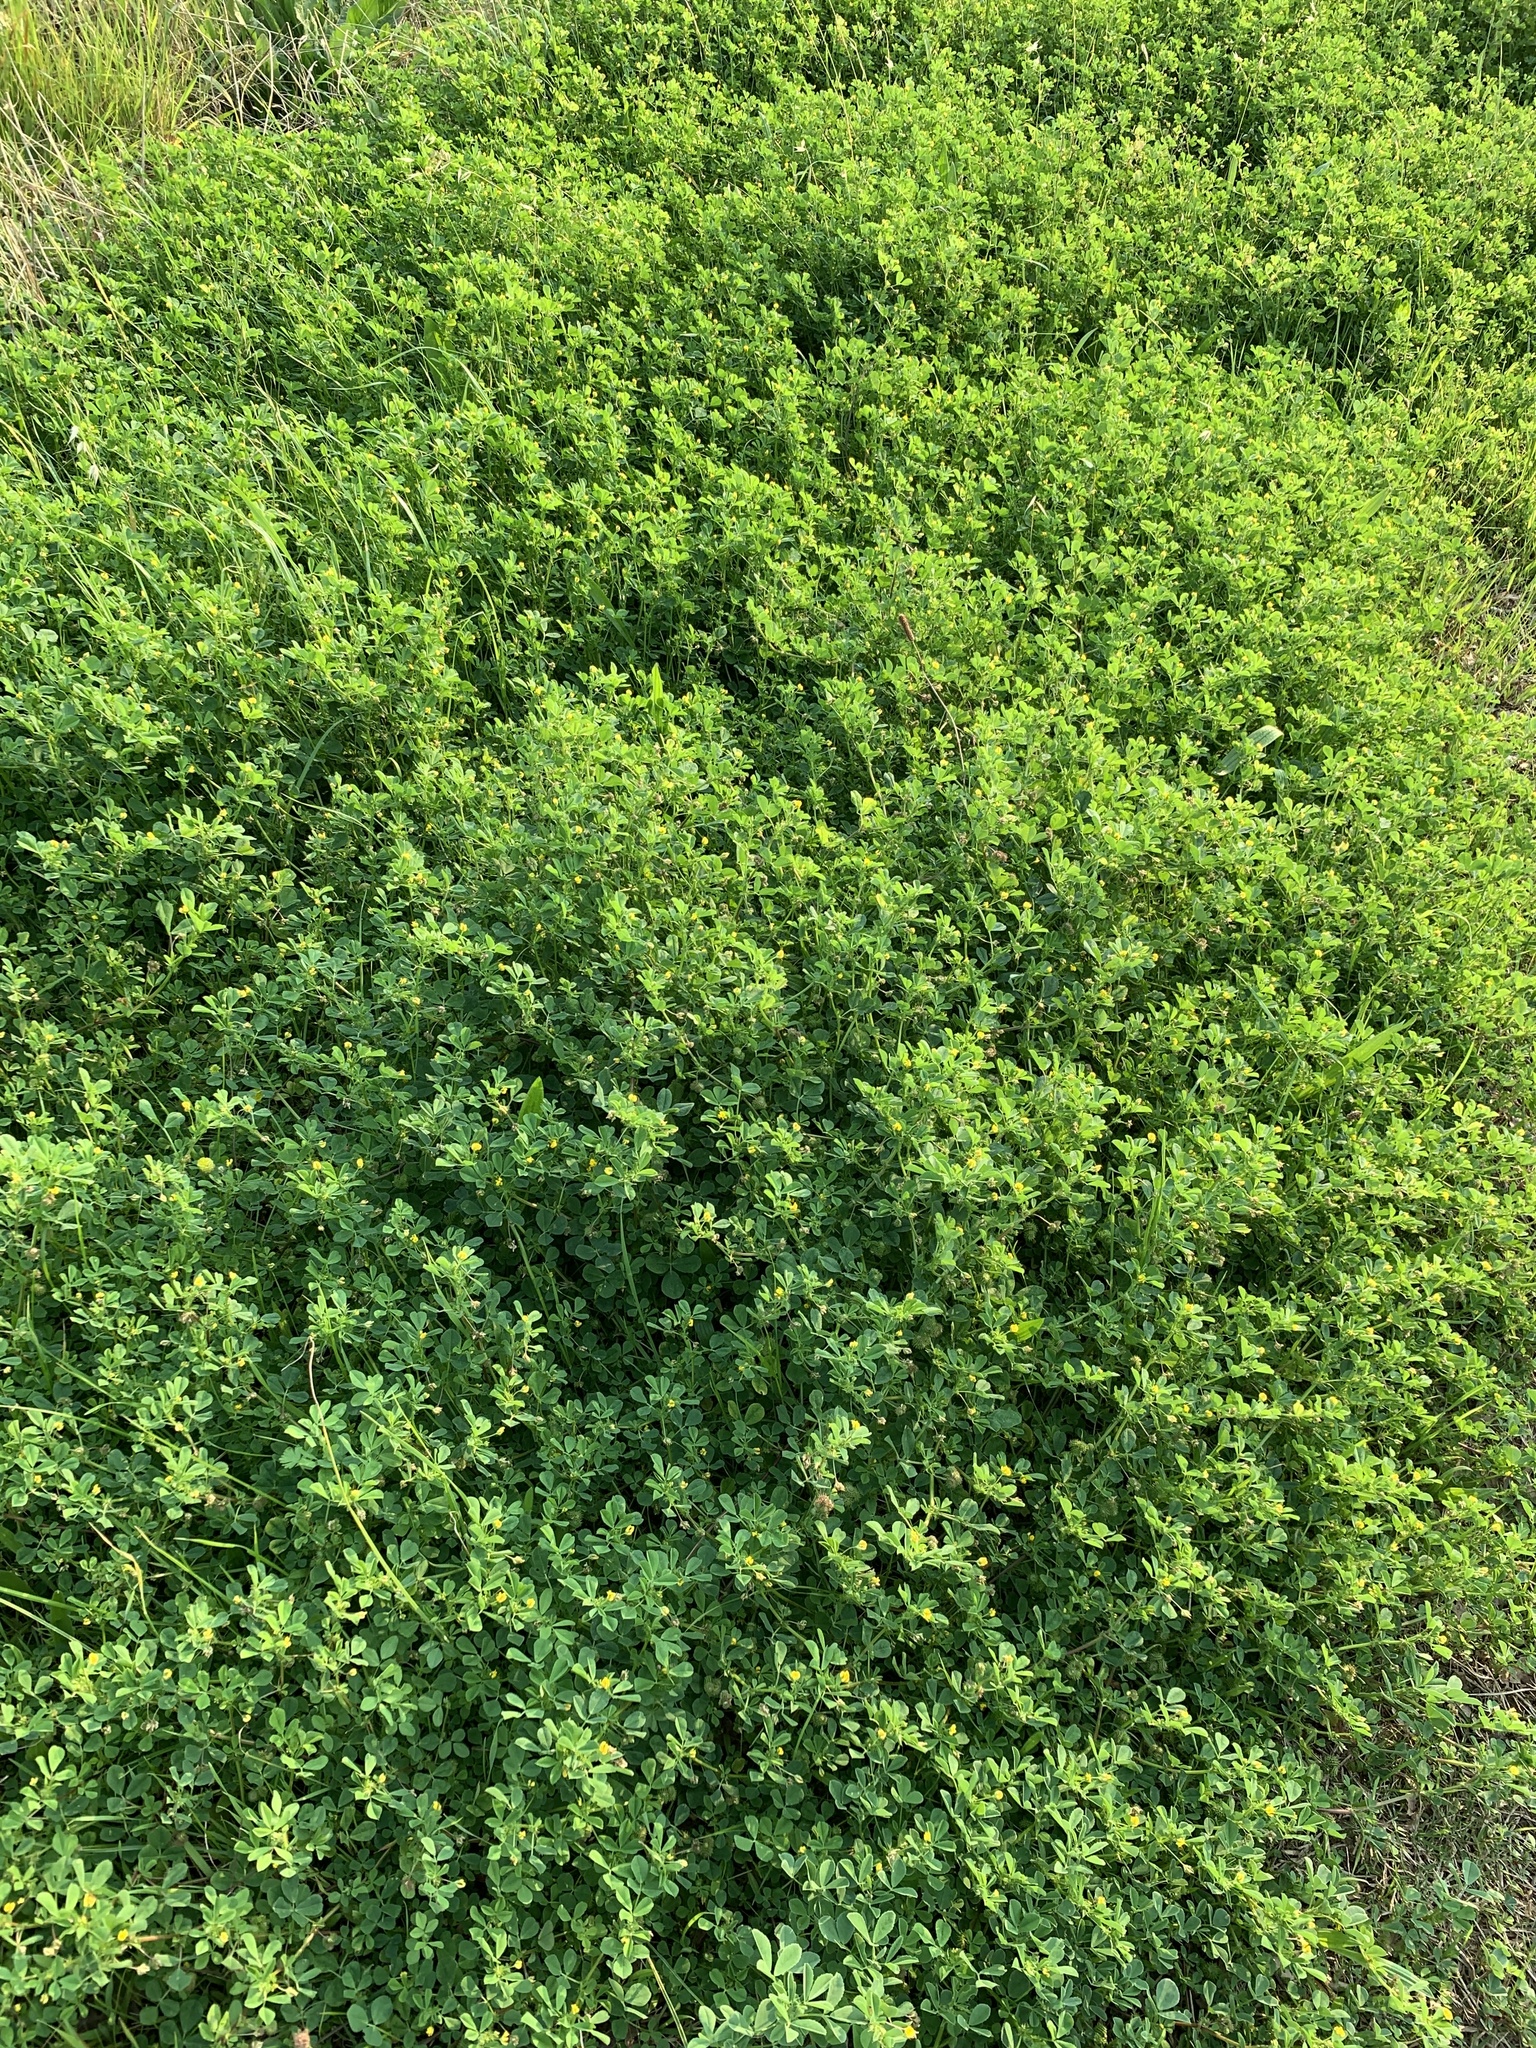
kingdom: Plantae
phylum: Tracheophyta
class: Magnoliopsida
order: Fabales
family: Fabaceae
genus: Medicago
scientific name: Medicago polymorpha
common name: Burclover
